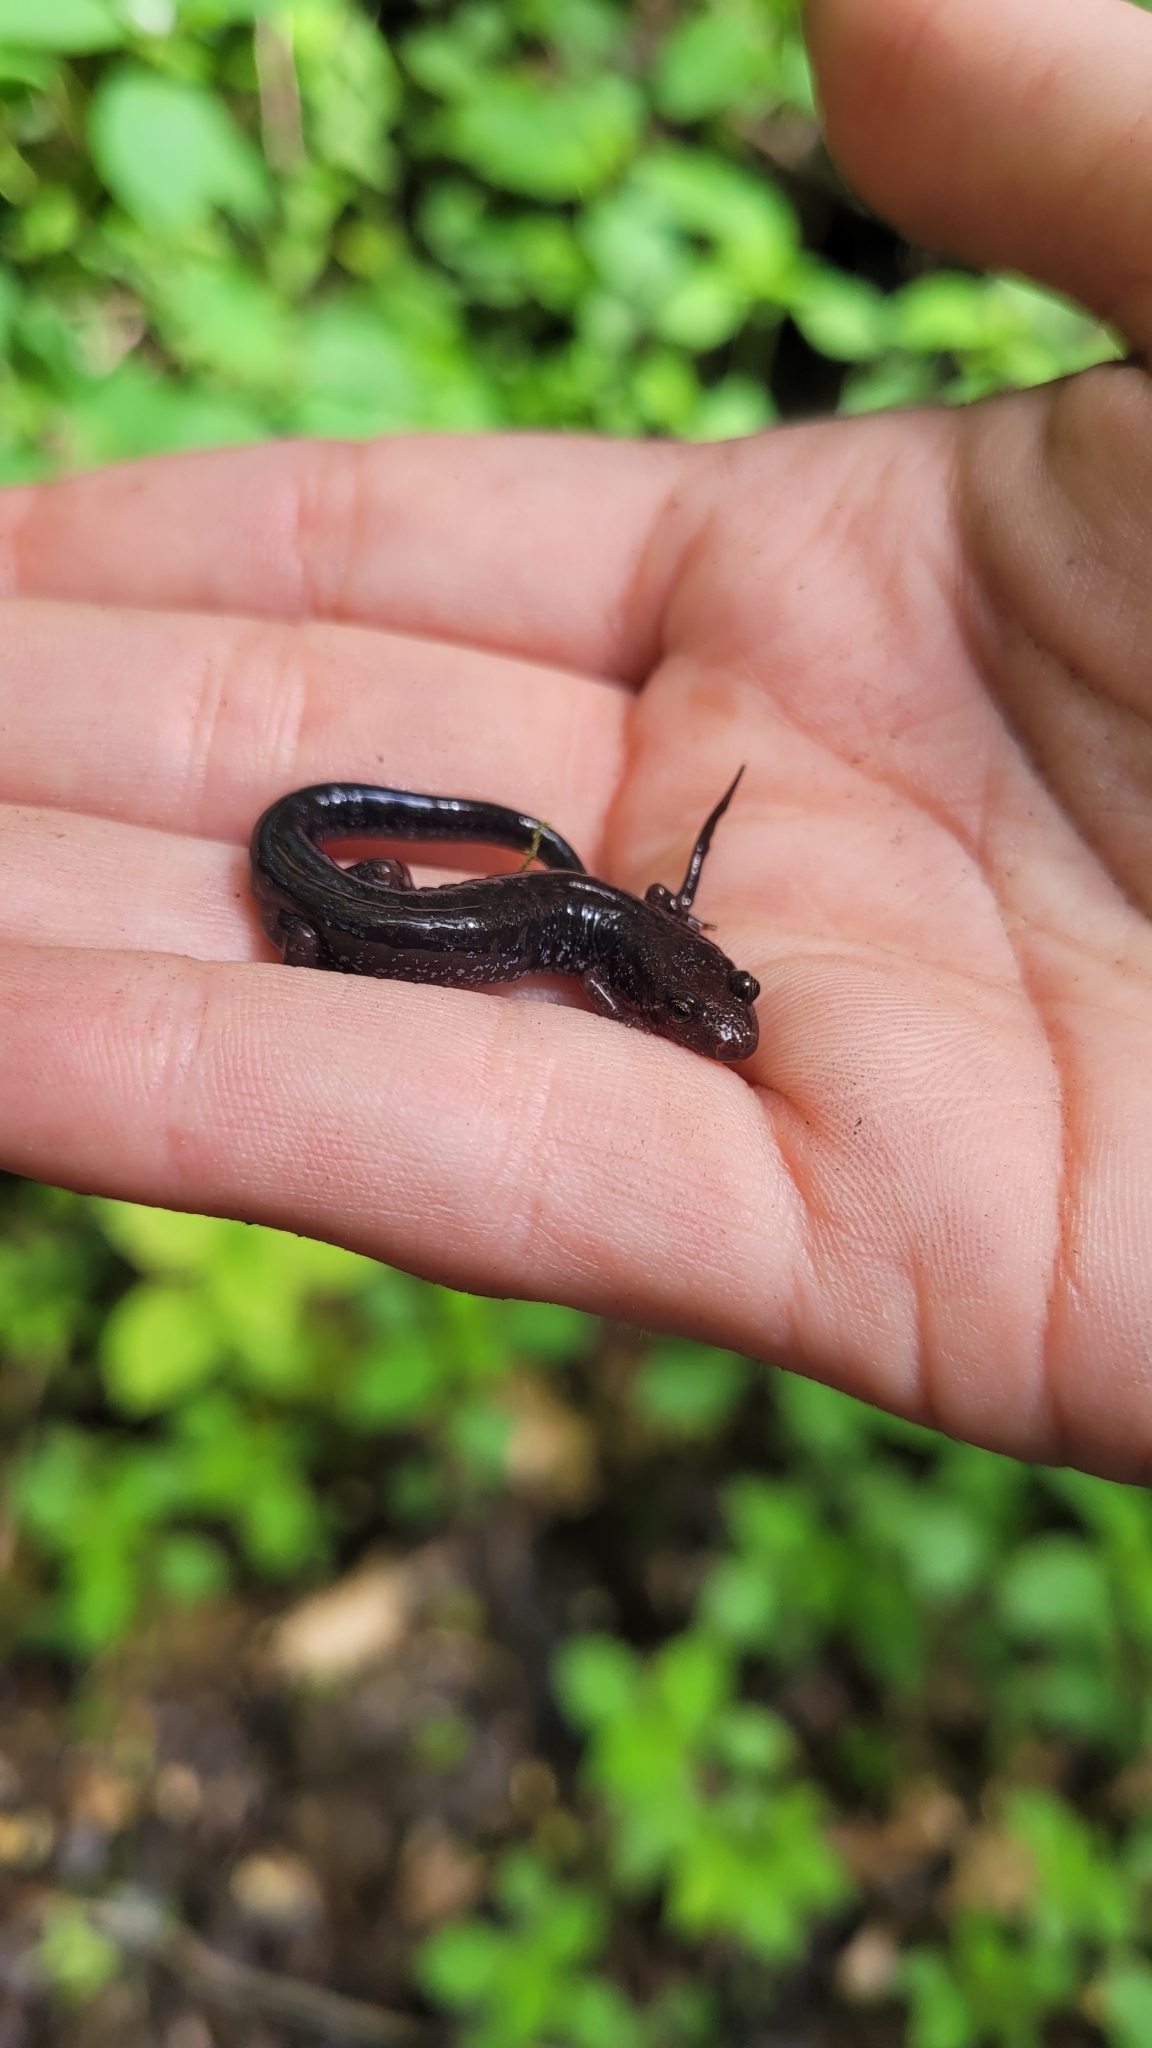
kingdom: Animalia
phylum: Chordata
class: Amphibia
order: Caudata
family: Plethodontidae
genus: Desmognathus
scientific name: Desmognathus ochrophaeus
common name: Allegheny mountain dusky salamander
